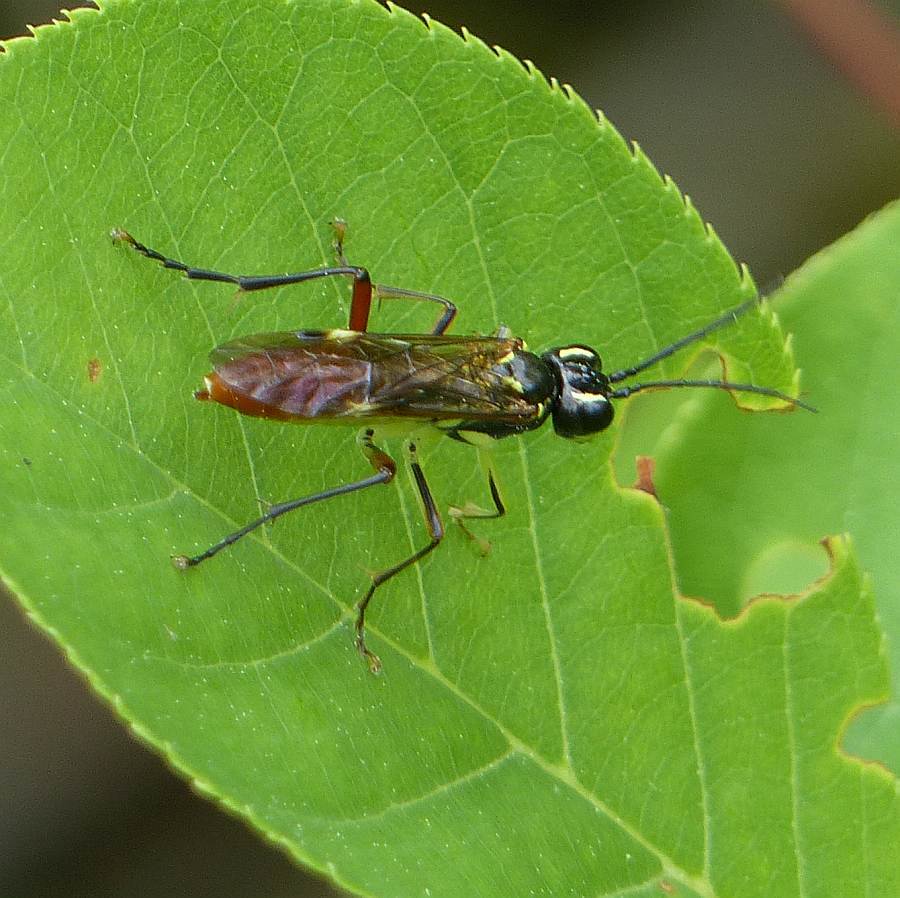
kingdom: Animalia
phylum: Arthropoda
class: Insecta
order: Hymenoptera
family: Tenthredinidae
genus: Tenthredo
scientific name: Tenthredo velox
